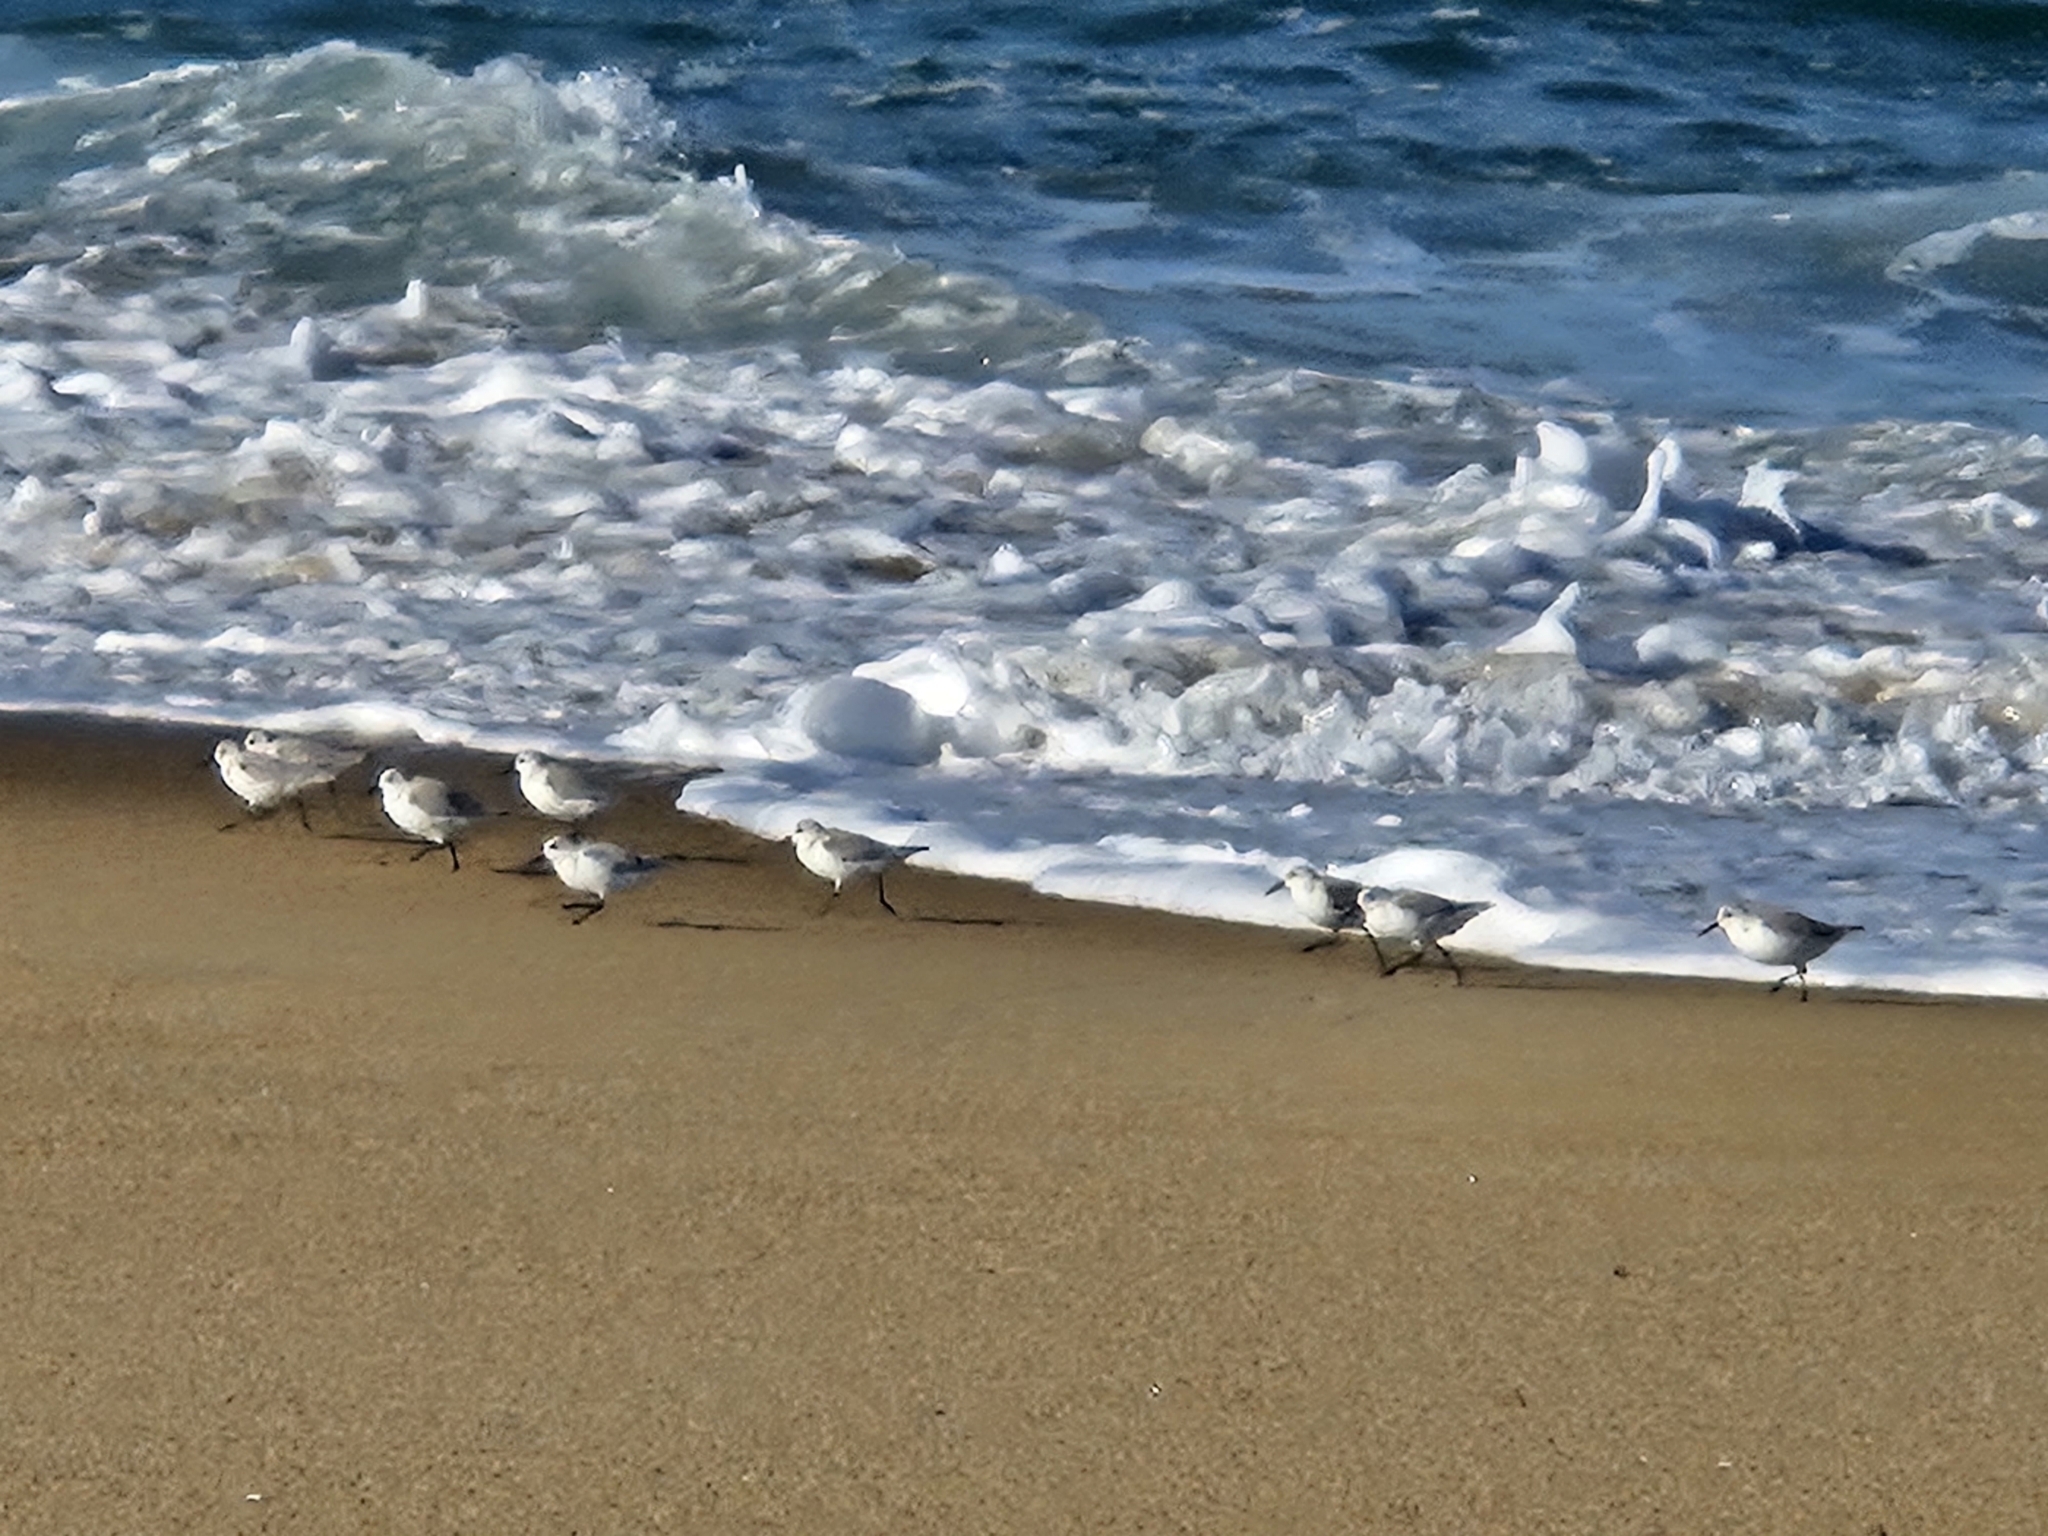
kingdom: Animalia
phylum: Chordata
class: Aves
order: Charadriiformes
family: Scolopacidae
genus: Calidris
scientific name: Calidris alba
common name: Sanderling
